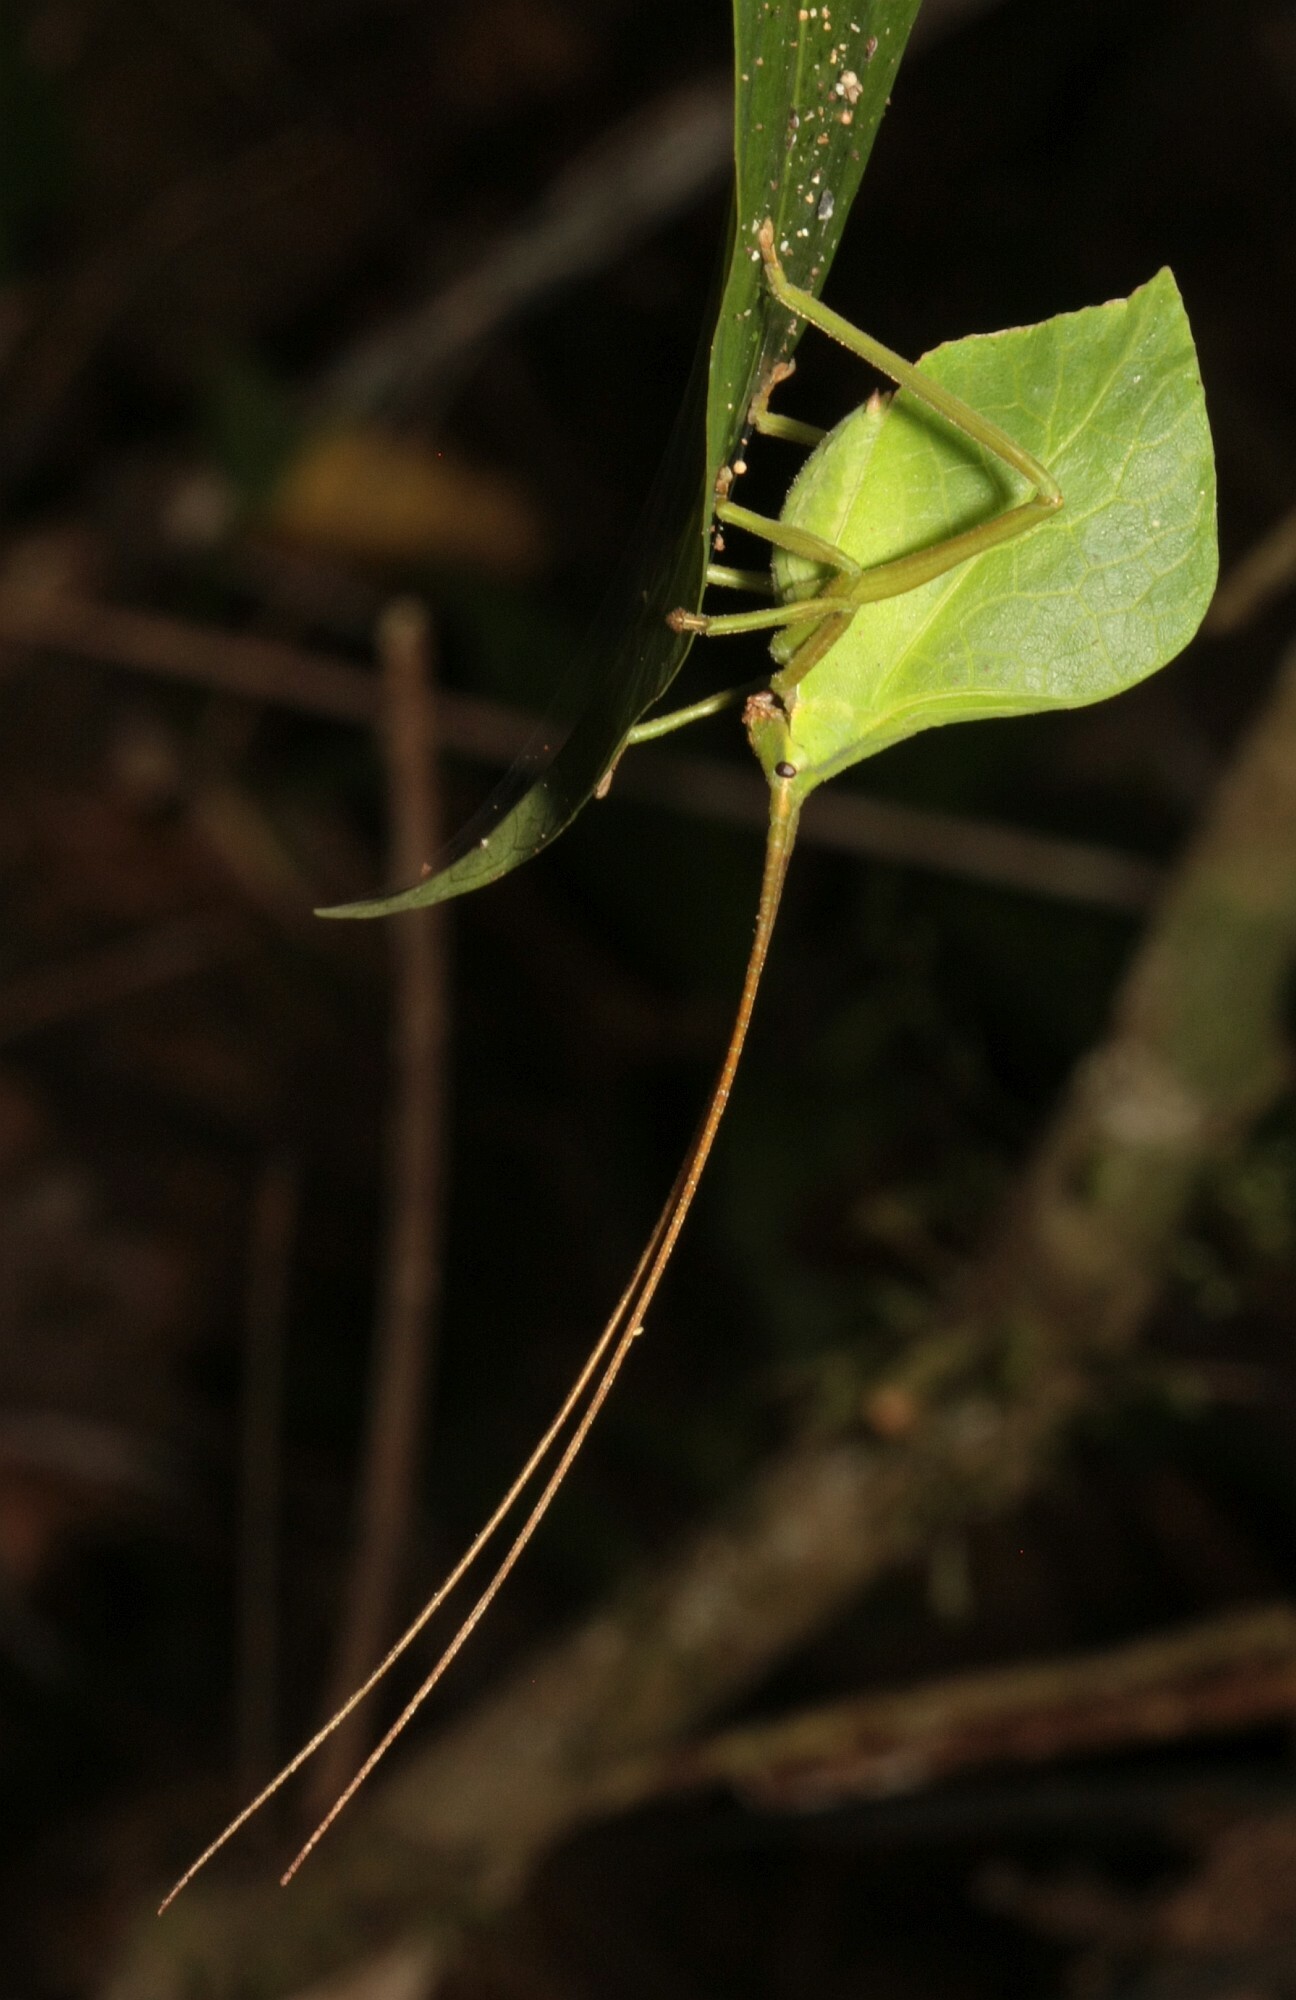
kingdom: Animalia
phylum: Arthropoda
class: Insecta
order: Orthoptera
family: Tettigoniidae
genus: Roxelana
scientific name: Roxelana crassicornis
